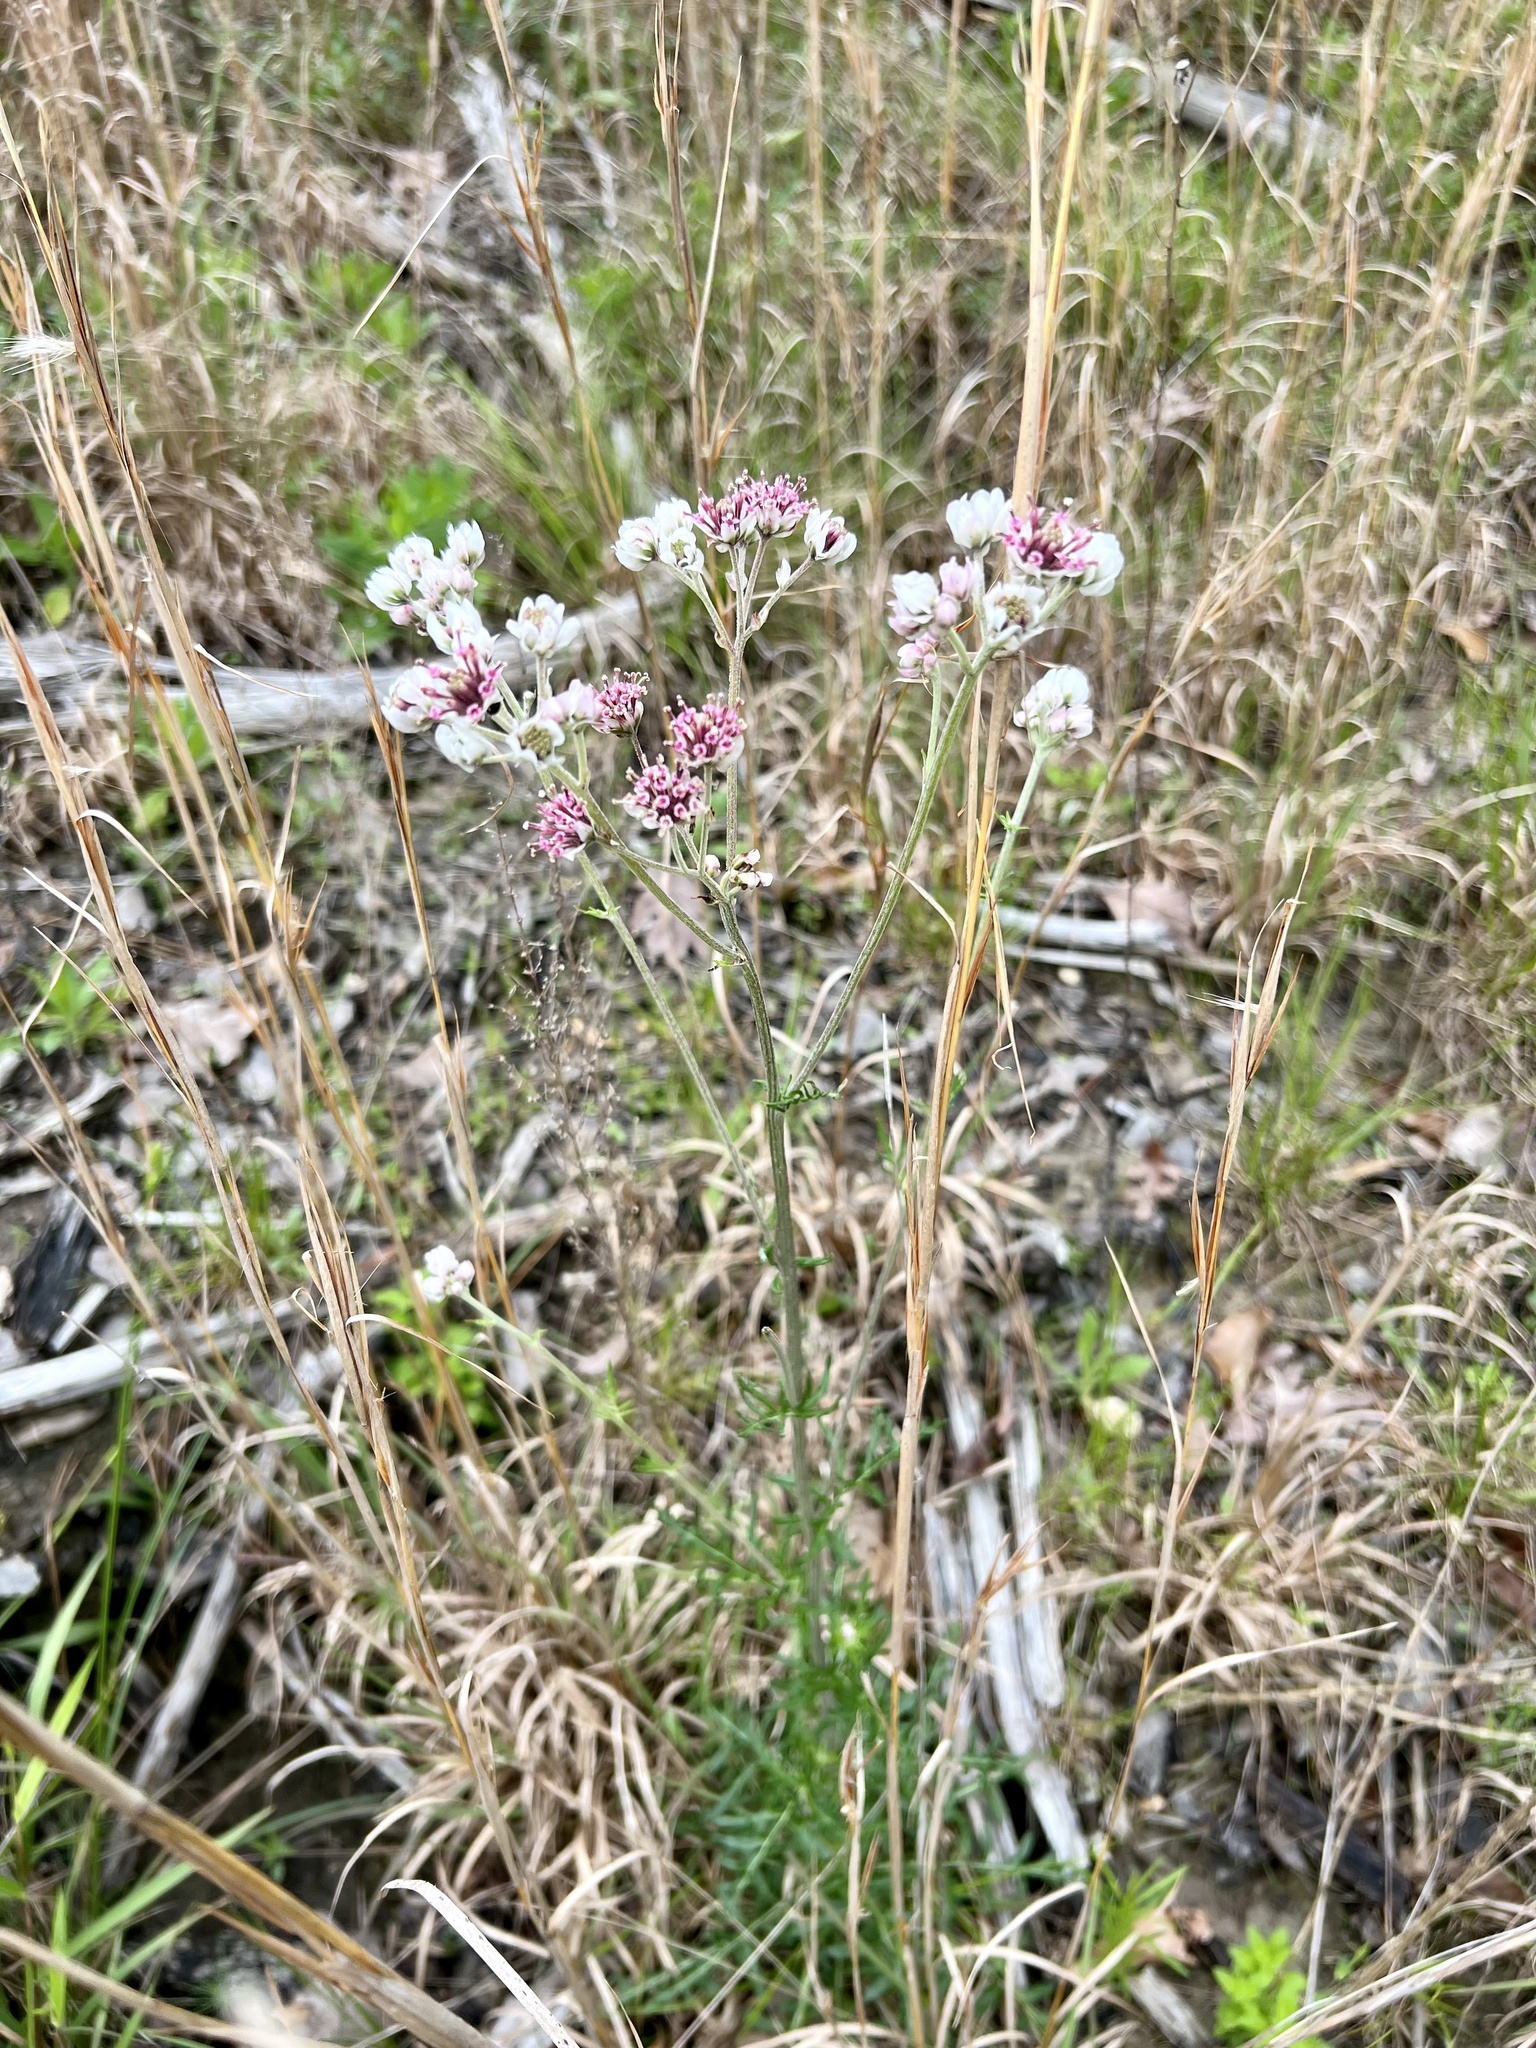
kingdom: Plantae
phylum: Tracheophyta
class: Magnoliopsida
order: Asterales
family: Asteraceae
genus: Hymenopappus
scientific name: Hymenopappus artemisiifolius
